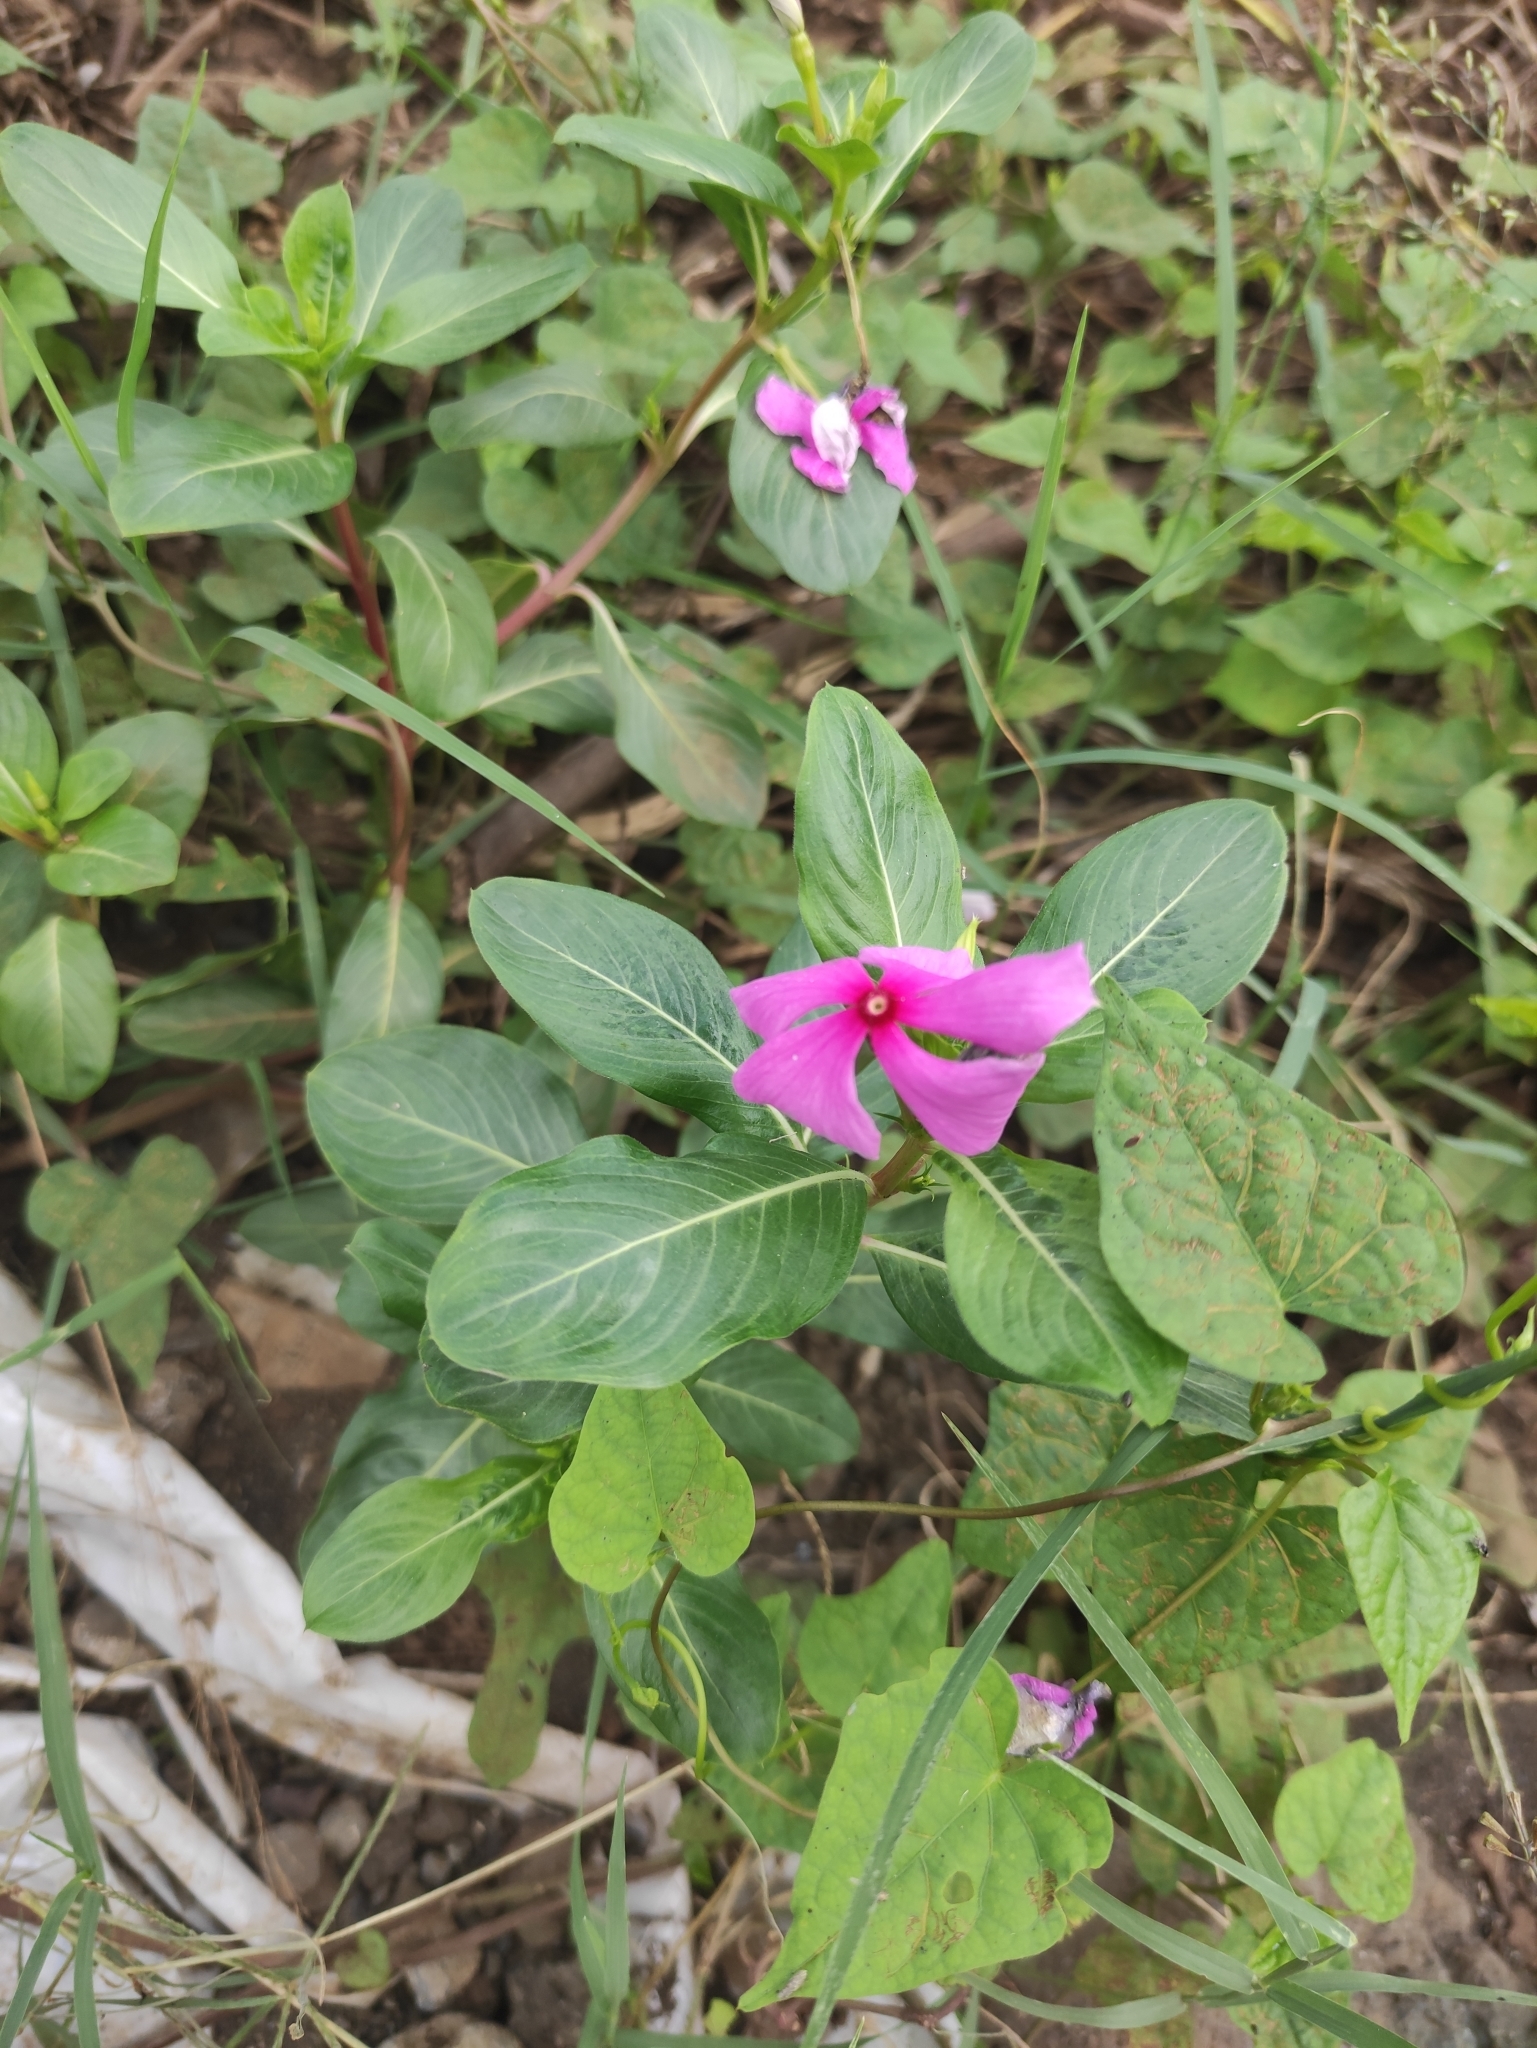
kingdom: Plantae
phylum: Tracheophyta
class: Magnoliopsida
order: Gentianales
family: Apocynaceae
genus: Catharanthus
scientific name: Catharanthus roseus
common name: Madagascar periwinkle
